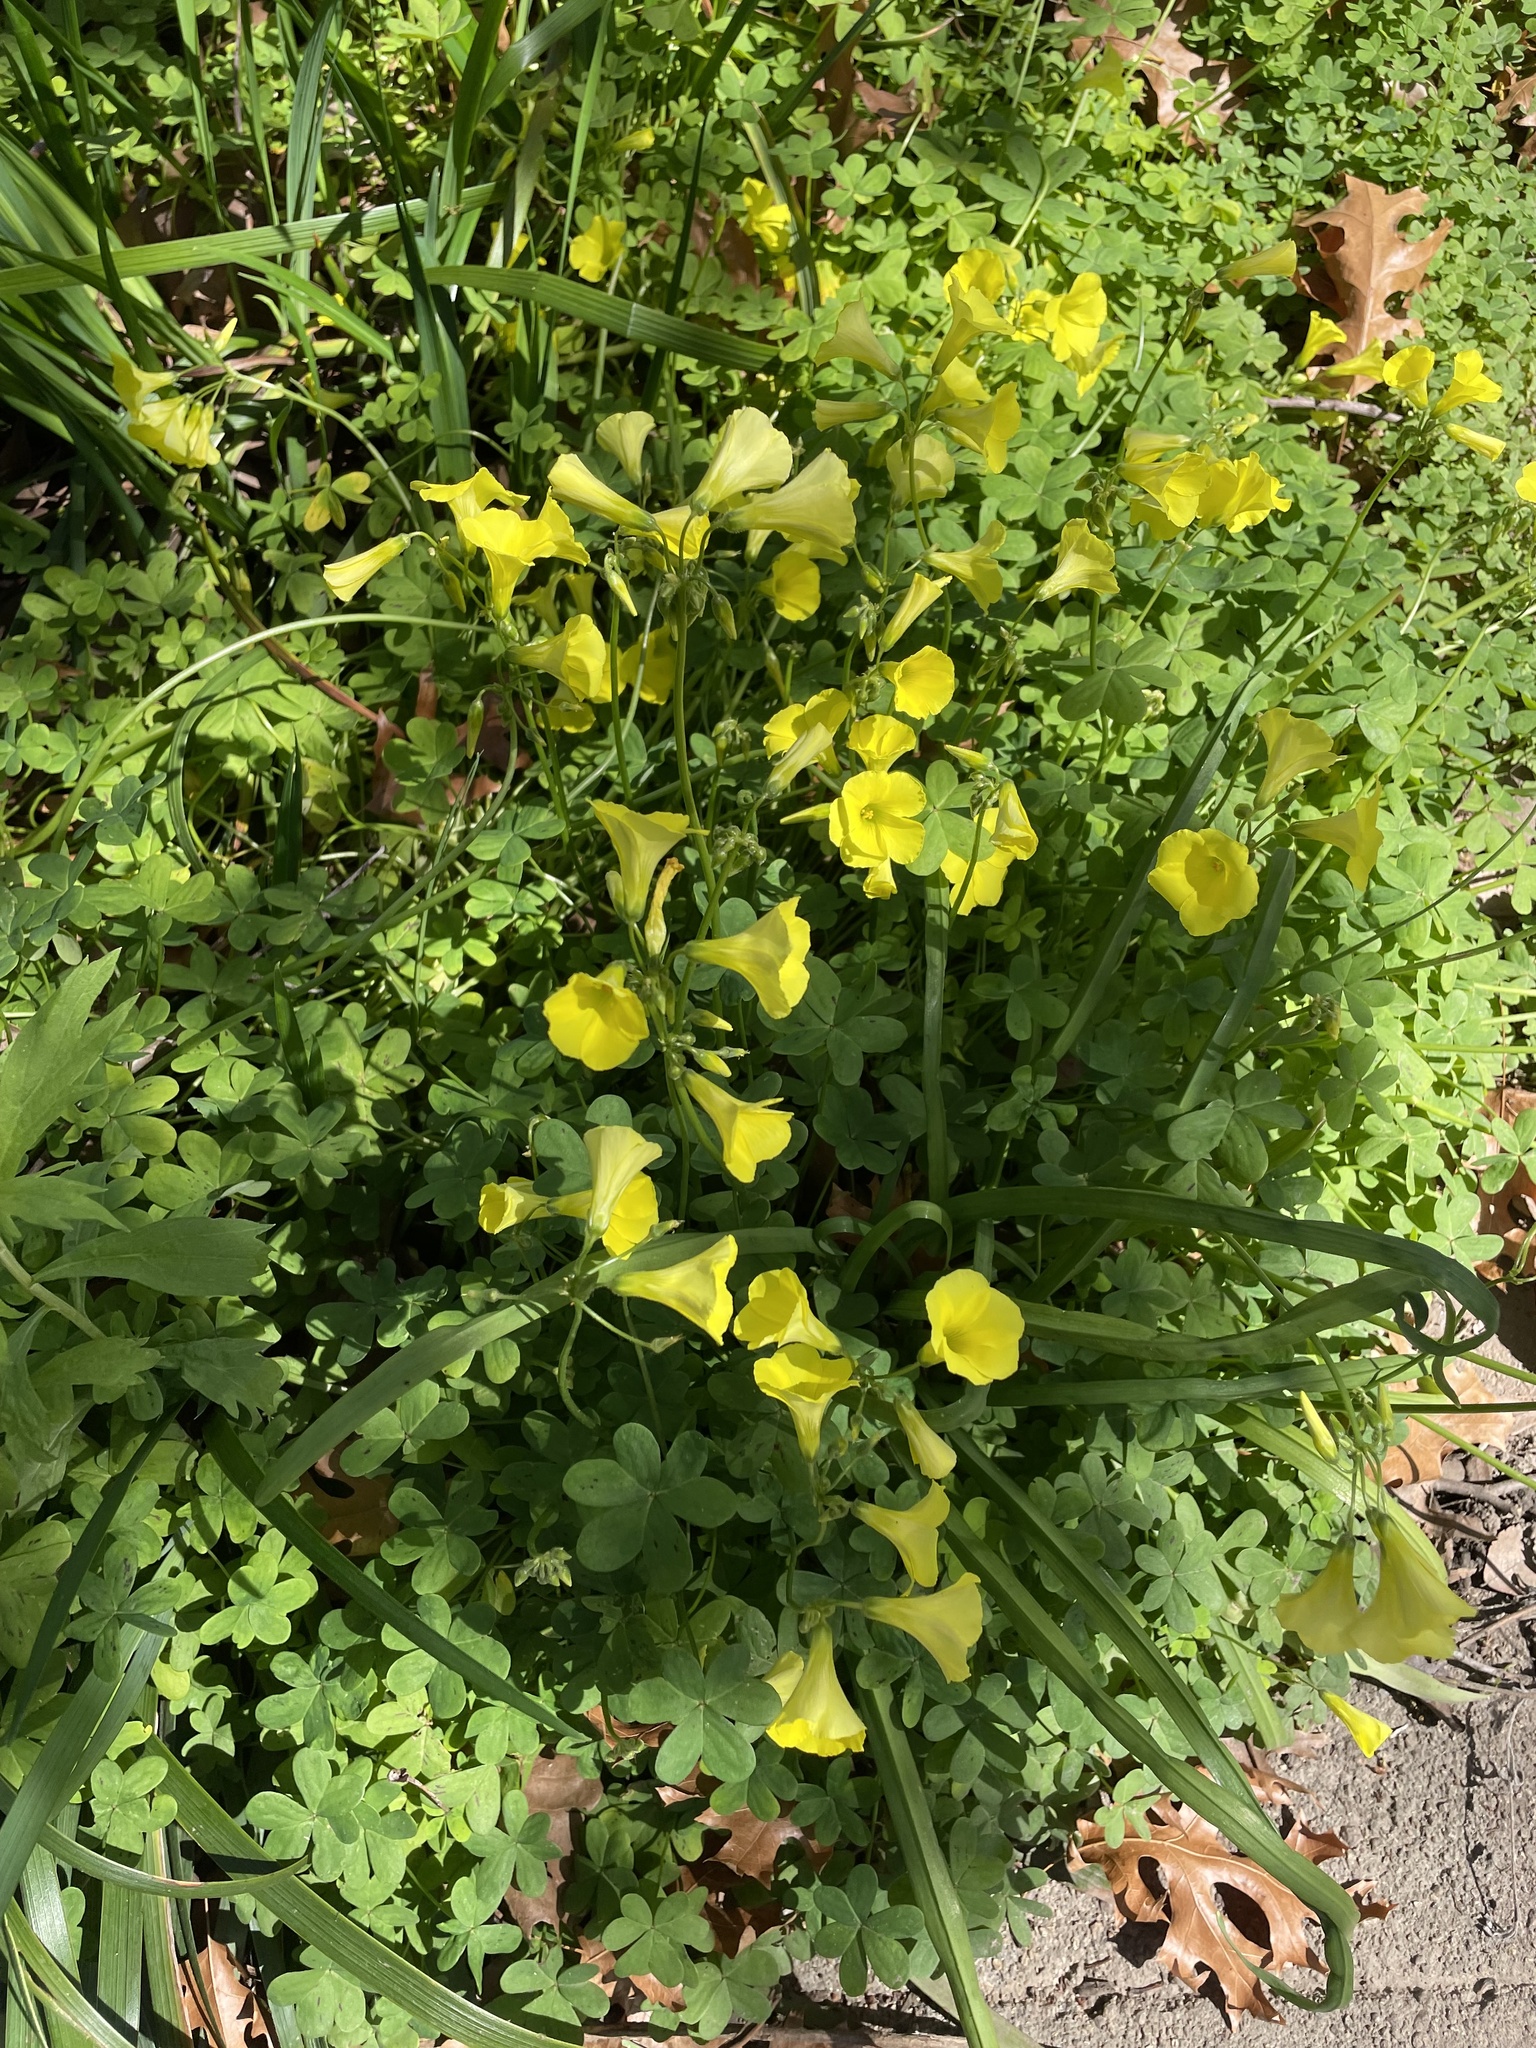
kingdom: Plantae
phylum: Tracheophyta
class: Magnoliopsida
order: Oxalidales
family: Oxalidaceae
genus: Oxalis
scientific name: Oxalis pes-caprae
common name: Bermuda-buttercup
